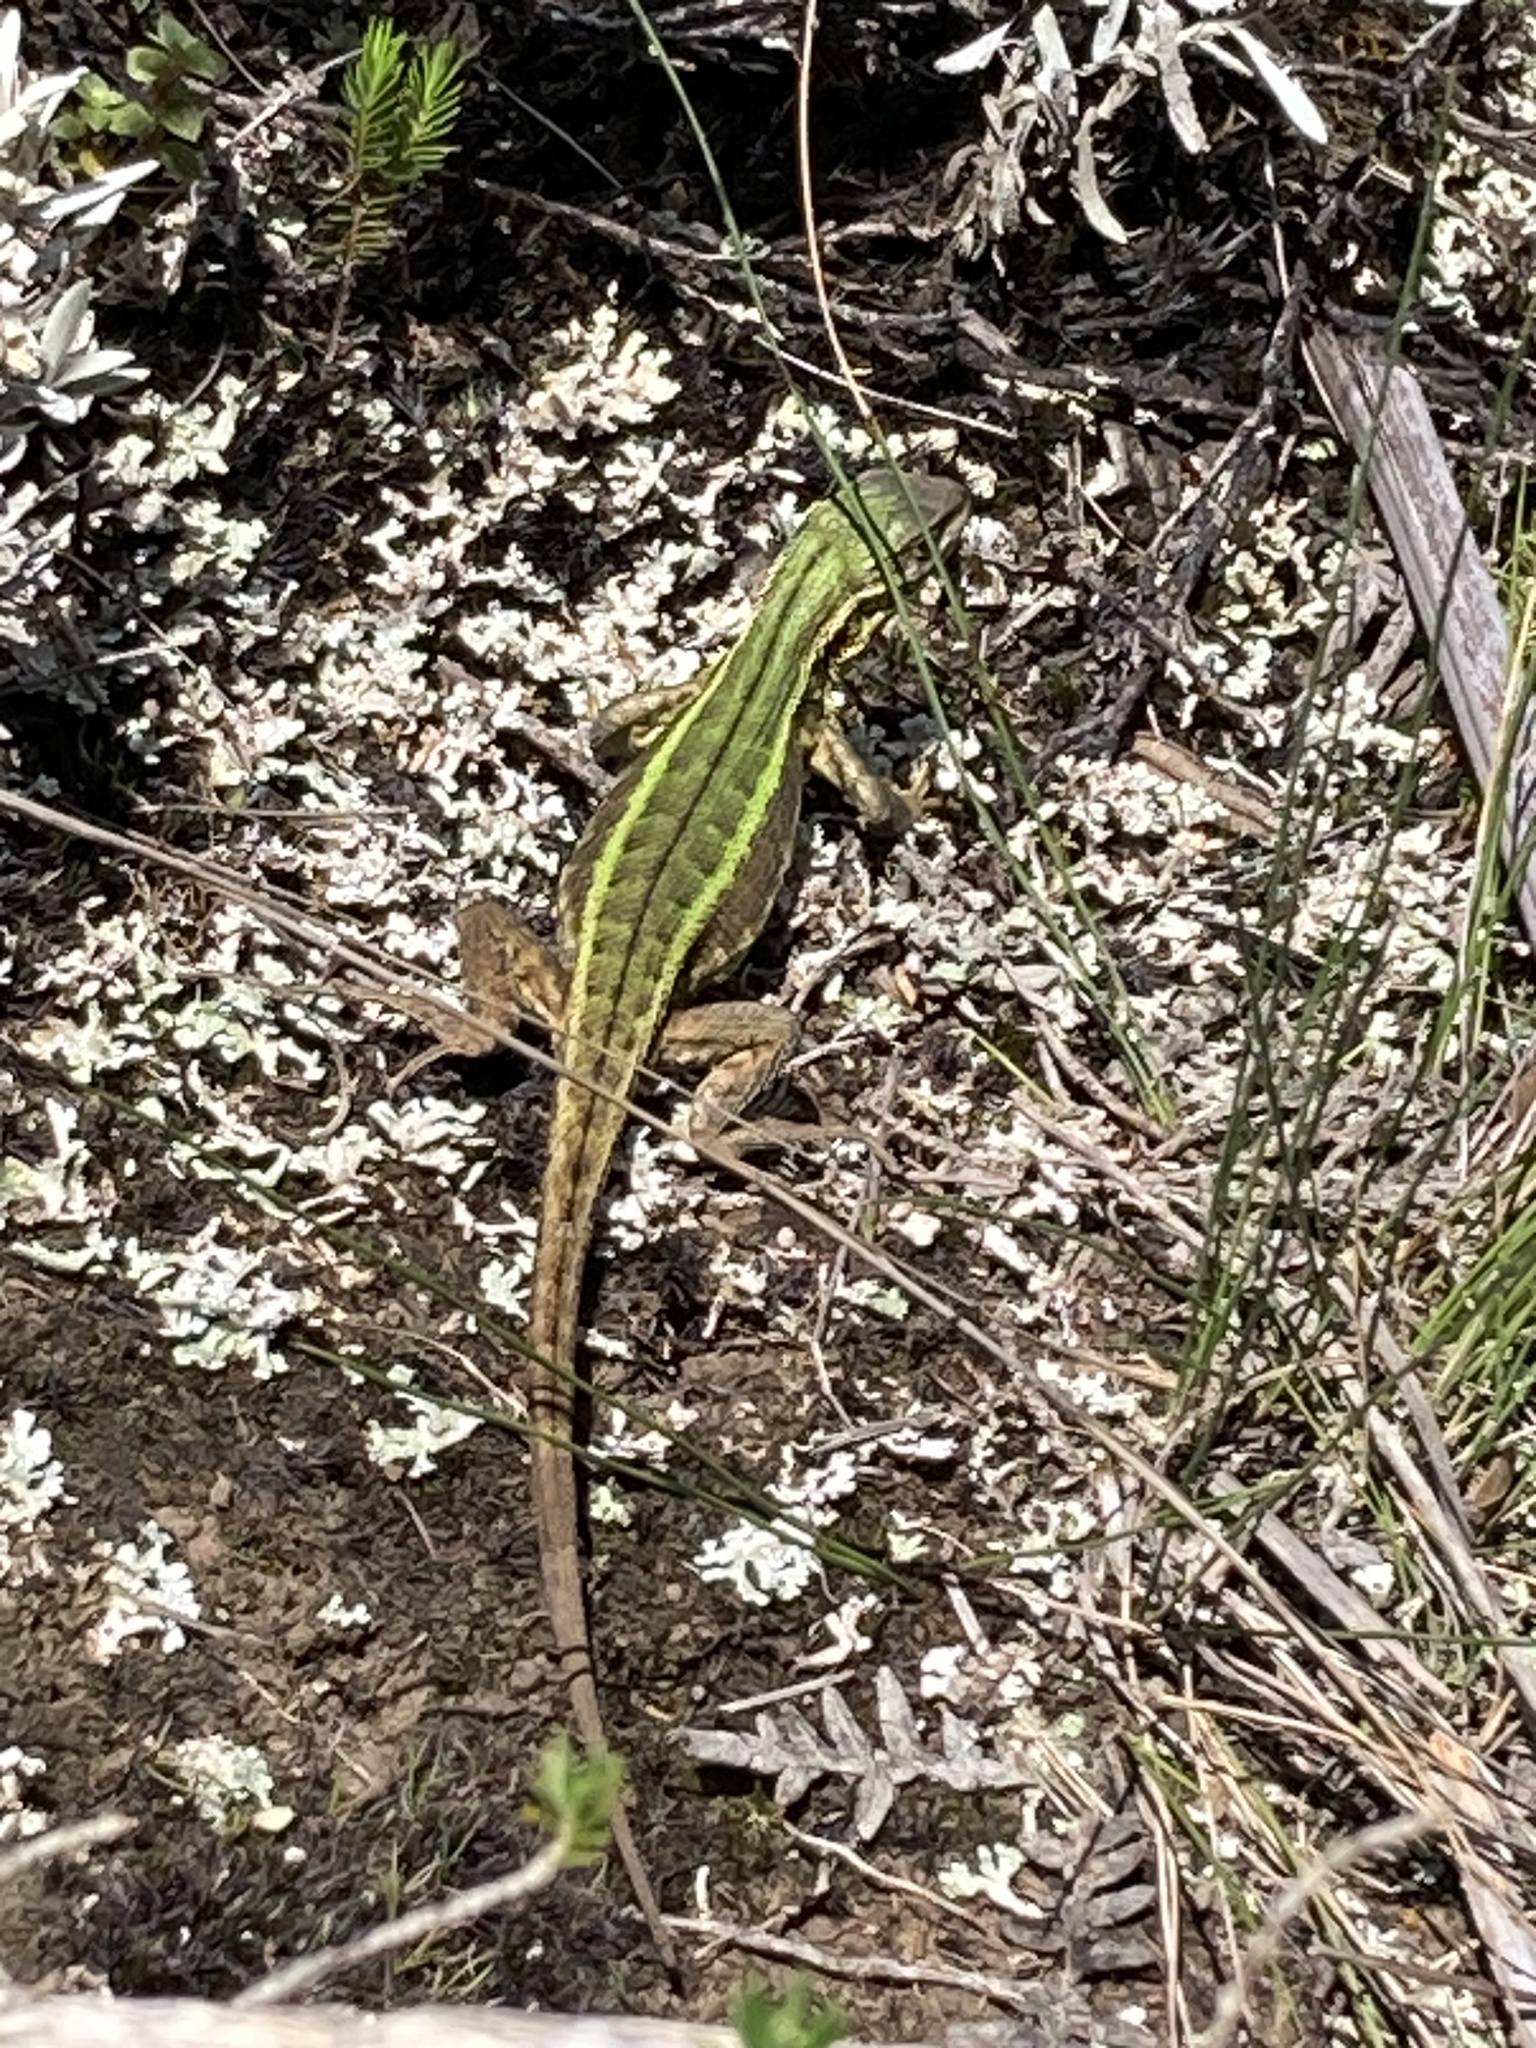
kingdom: Animalia
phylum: Chordata
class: Squamata
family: Tropiduridae
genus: Stenocercus
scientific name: Stenocercus trachycephalus
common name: Duméril's whorltail iguana
